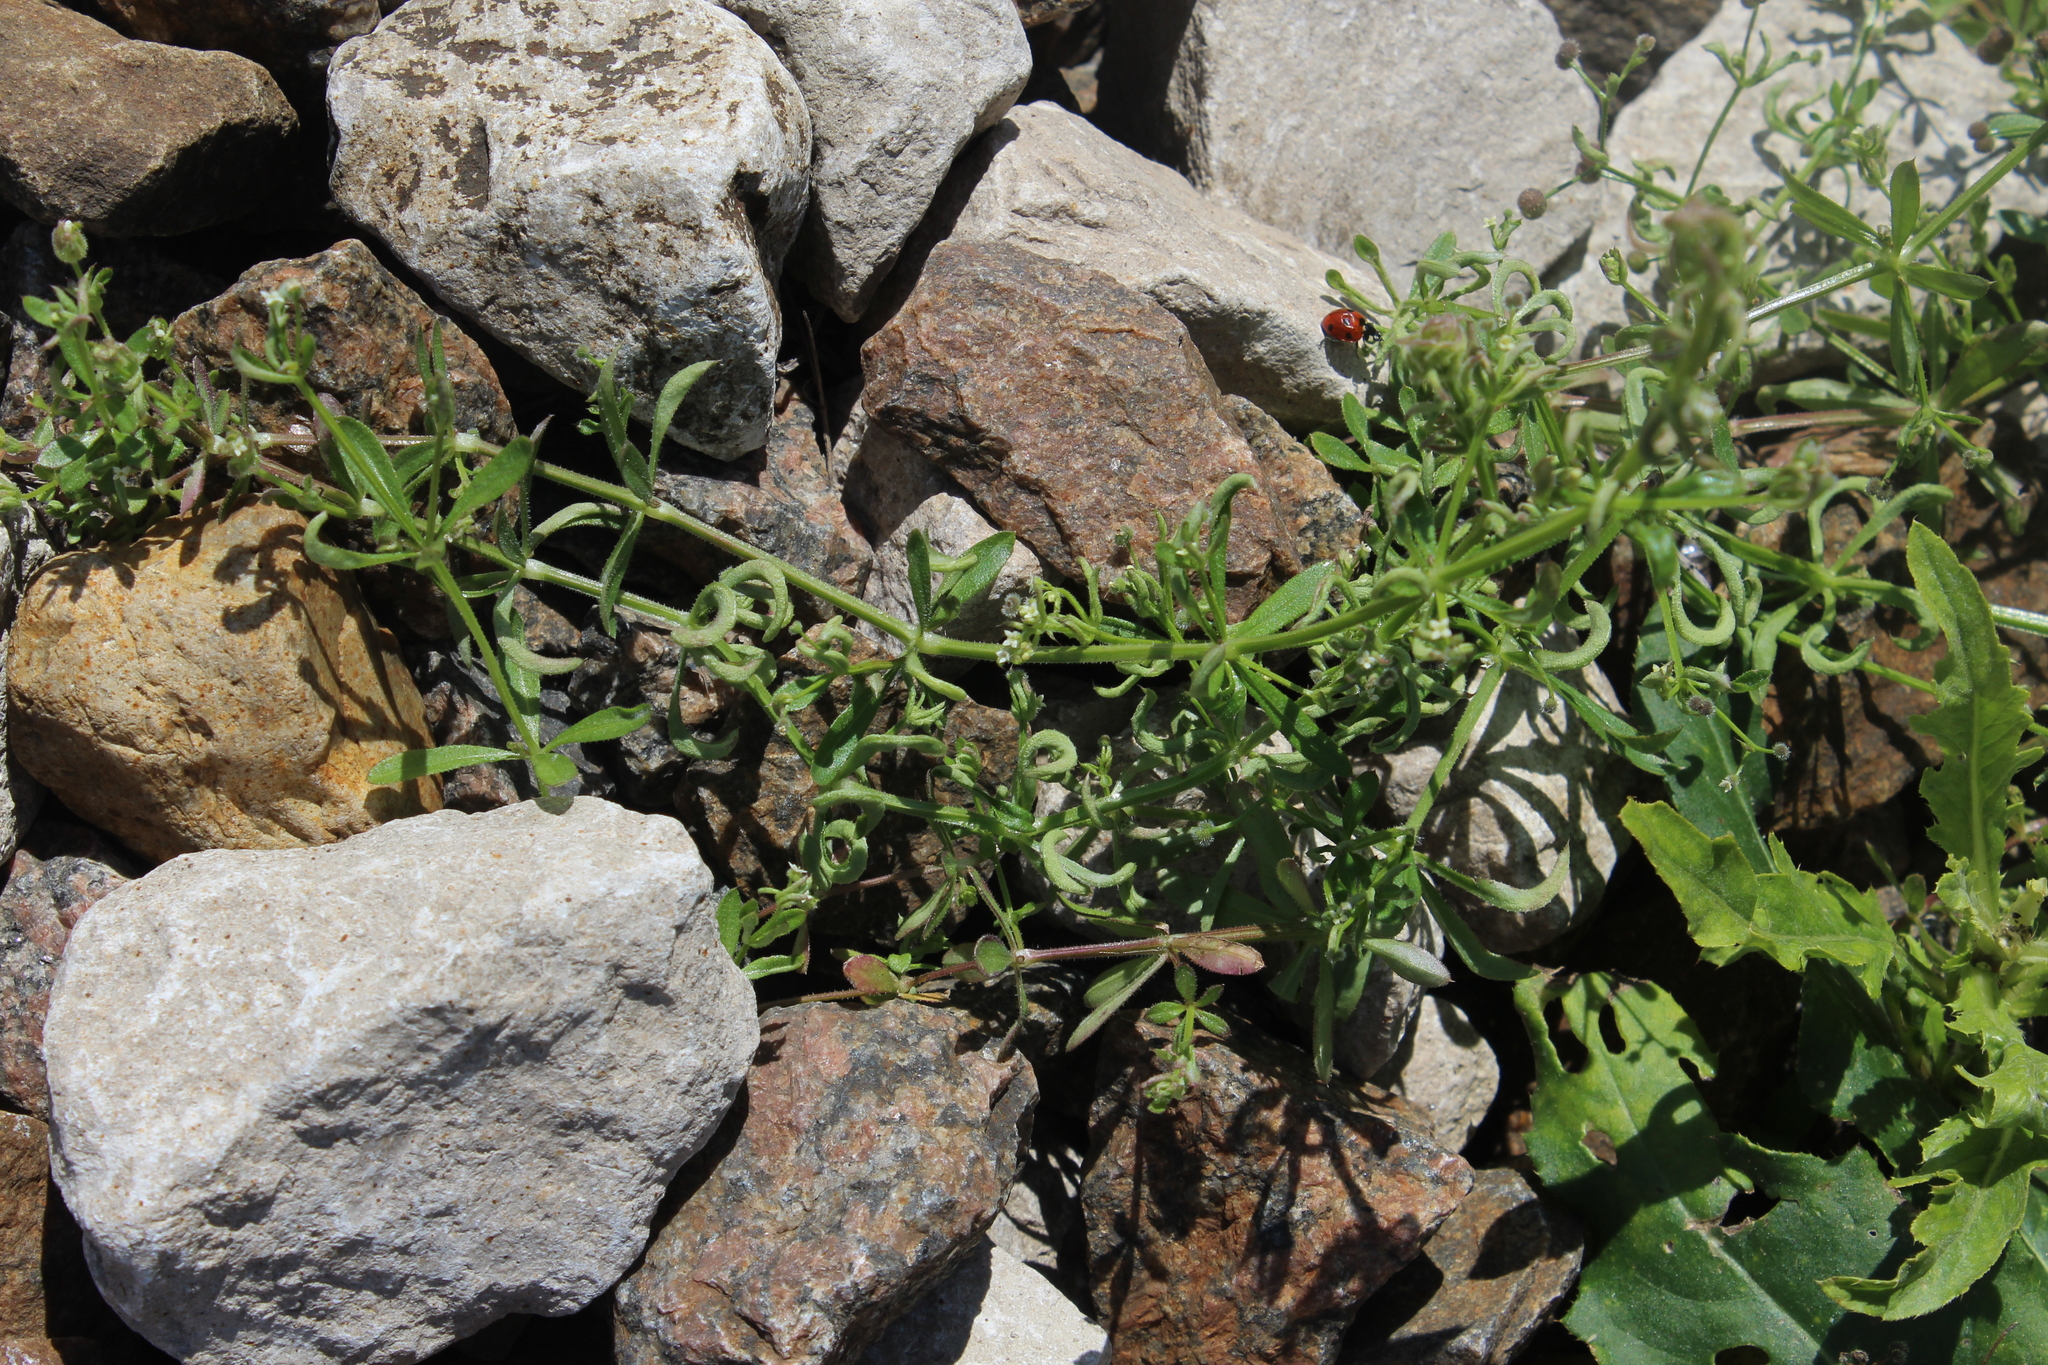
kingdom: Plantae
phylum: Tracheophyta
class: Magnoliopsida
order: Gentianales
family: Rubiaceae
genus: Galium
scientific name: Galium aparine
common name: Cleavers
